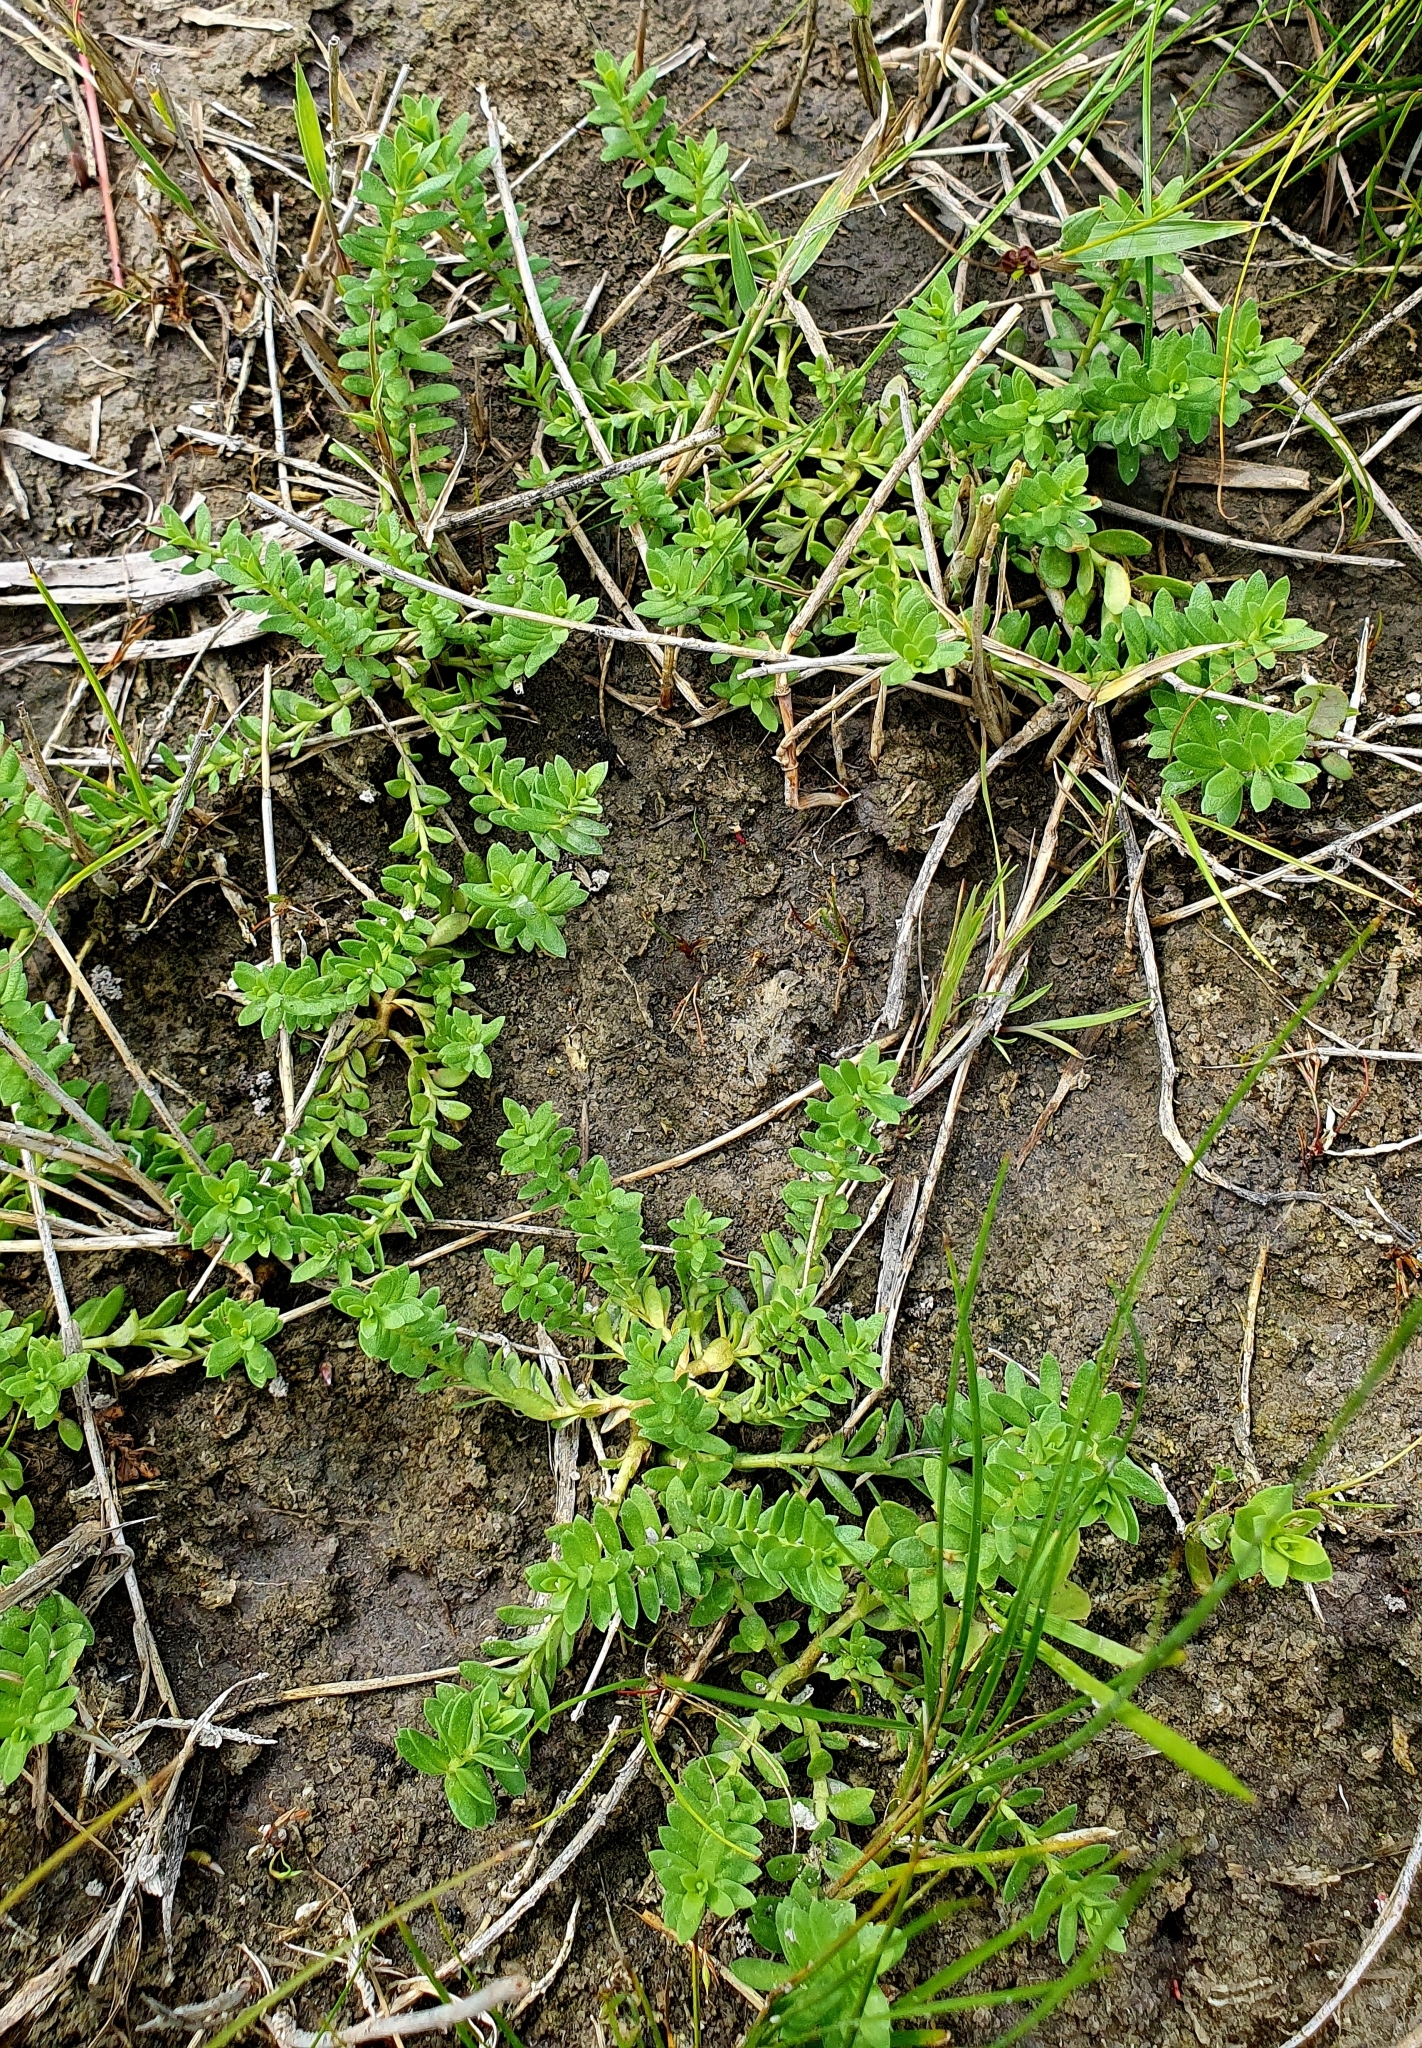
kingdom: Plantae
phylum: Tracheophyta
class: Magnoliopsida
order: Ericales
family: Primulaceae
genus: Lysimachia
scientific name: Lysimachia maritima
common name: Sea milkwort
